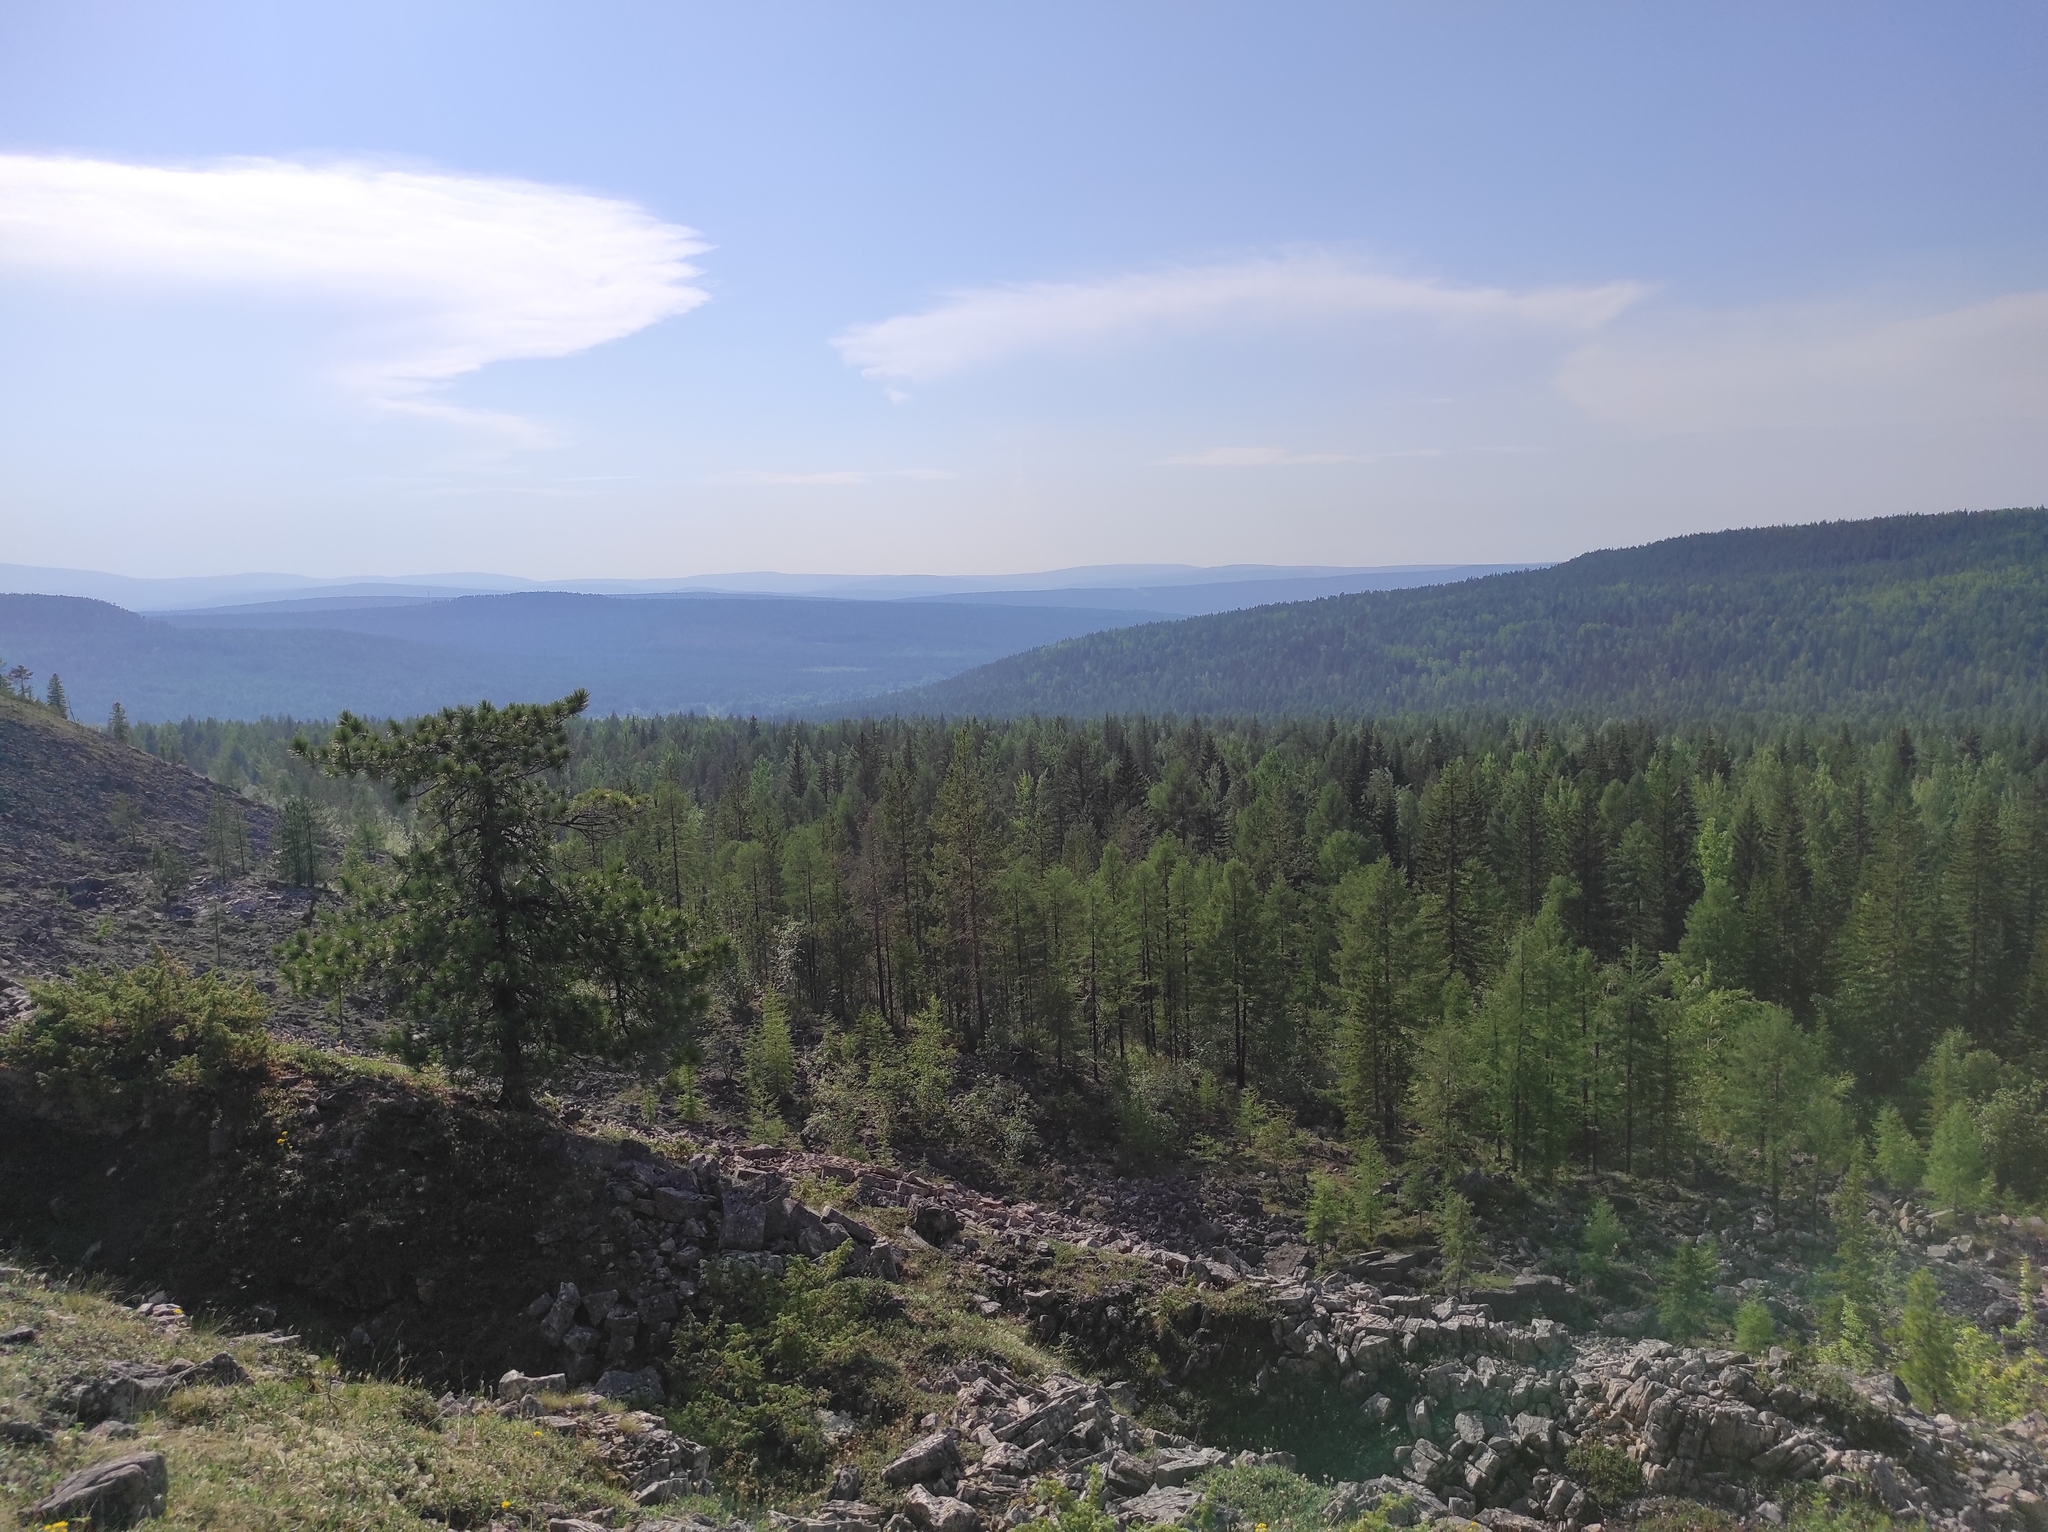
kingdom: Plantae
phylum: Tracheophyta
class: Pinopsida
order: Pinales
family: Pinaceae
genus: Larix
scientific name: Larix gmelinii
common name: Dahurian larch
